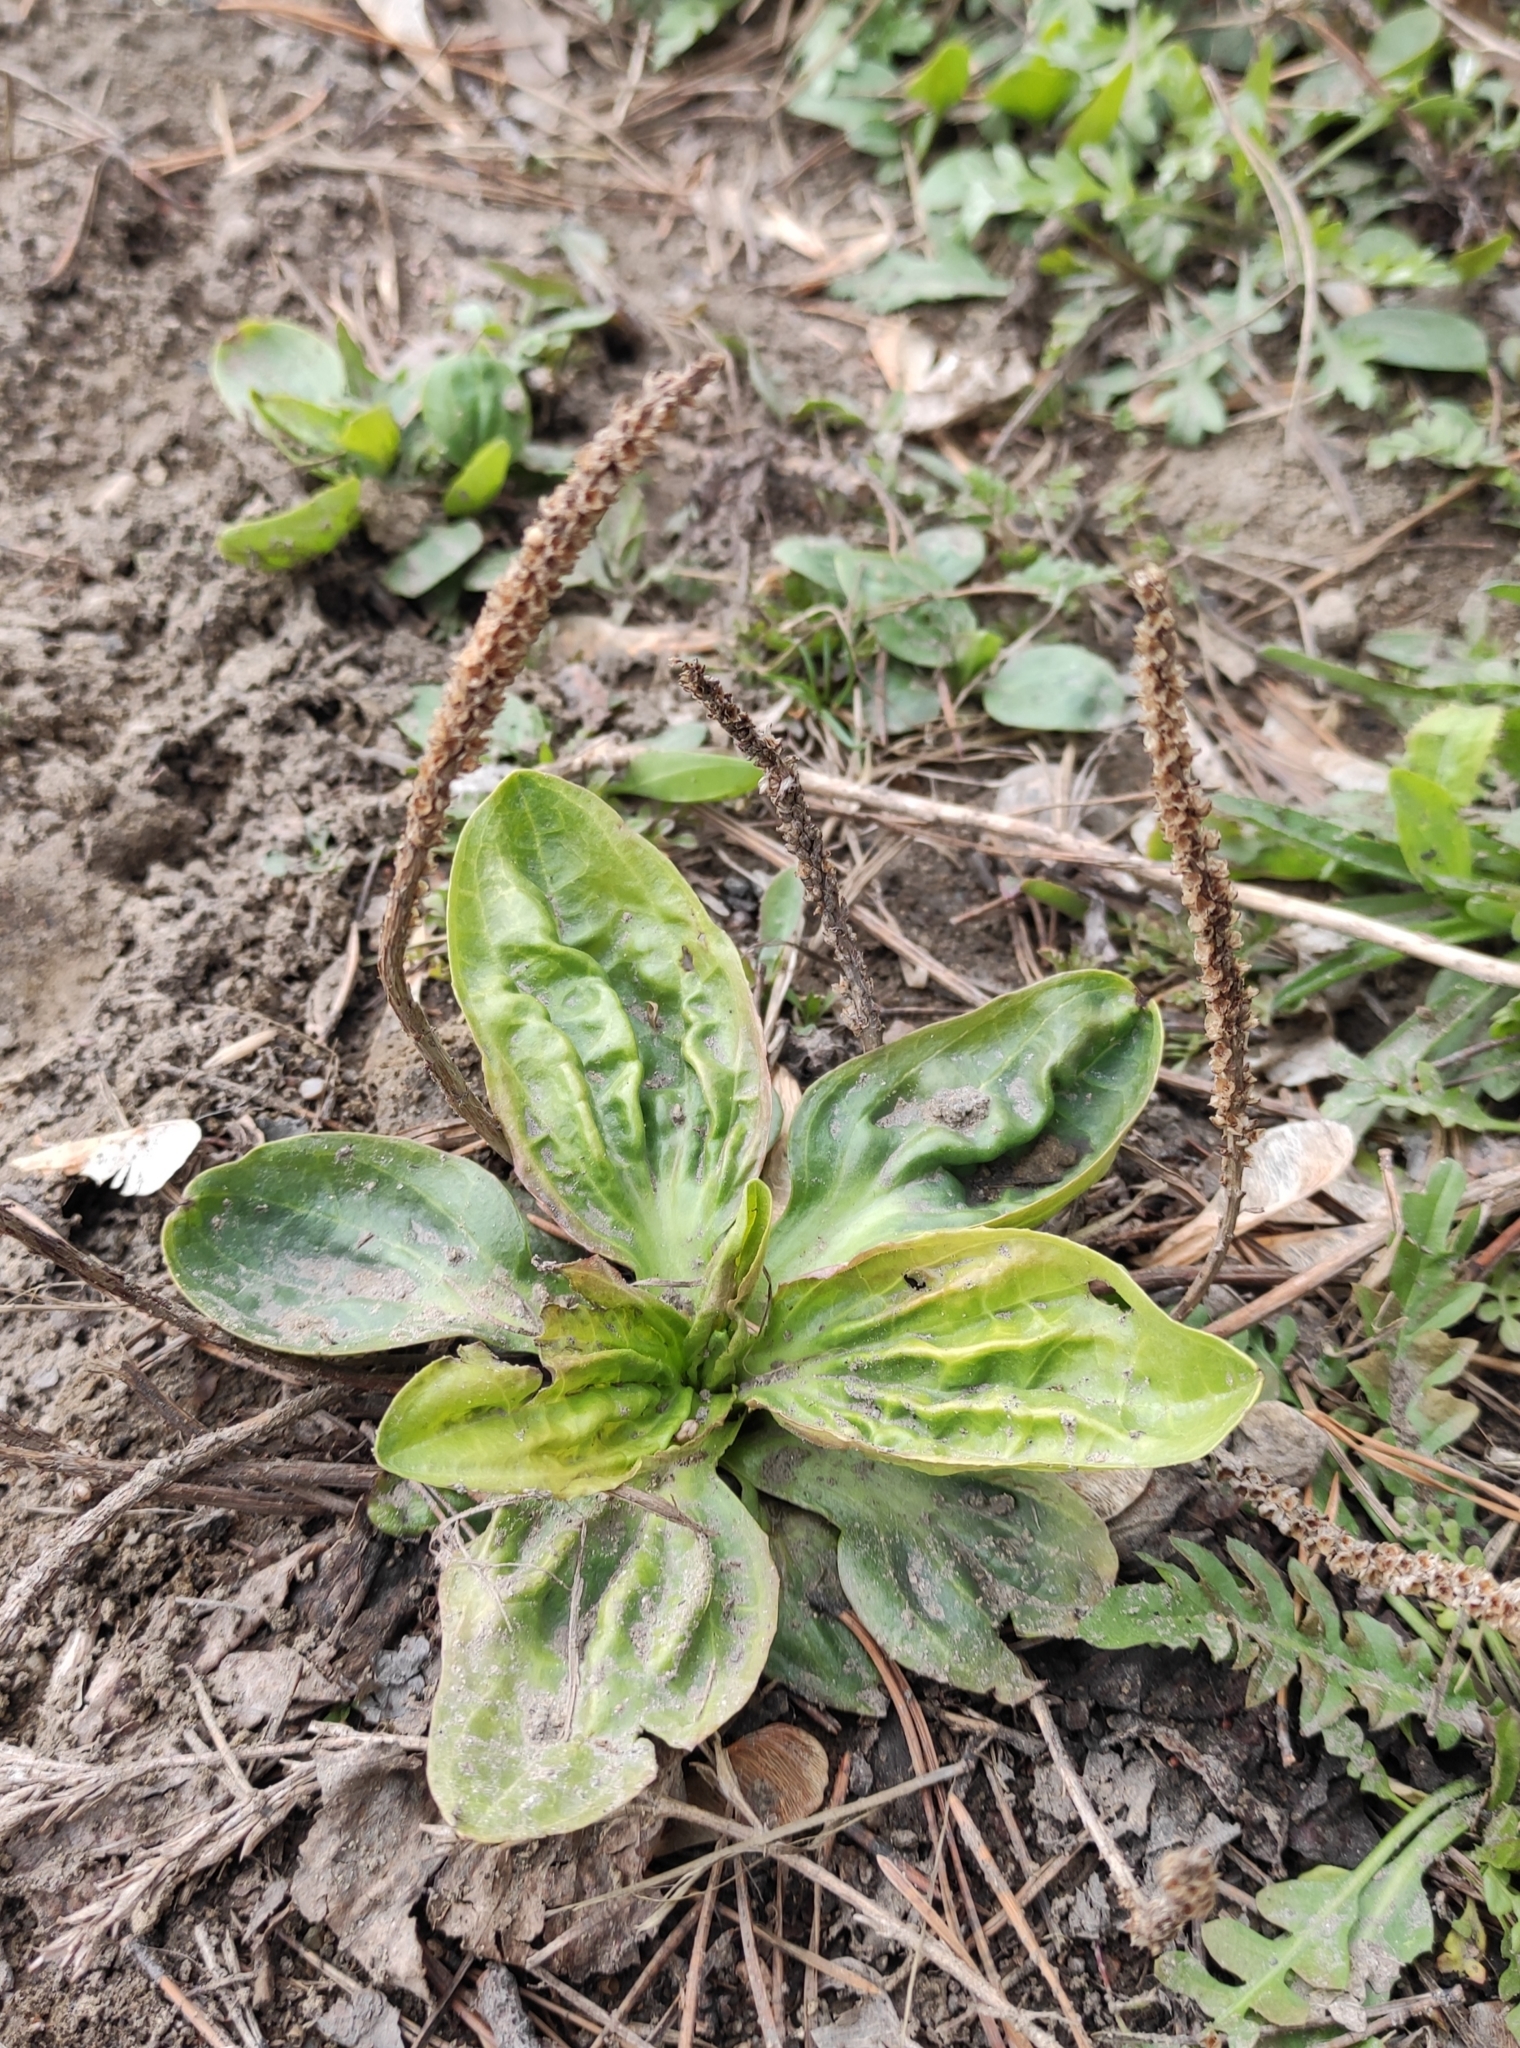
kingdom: Plantae
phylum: Tracheophyta
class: Magnoliopsida
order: Lamiales
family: Plantaginaceae
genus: Plantago
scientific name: Plantago major
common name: Common plantain
